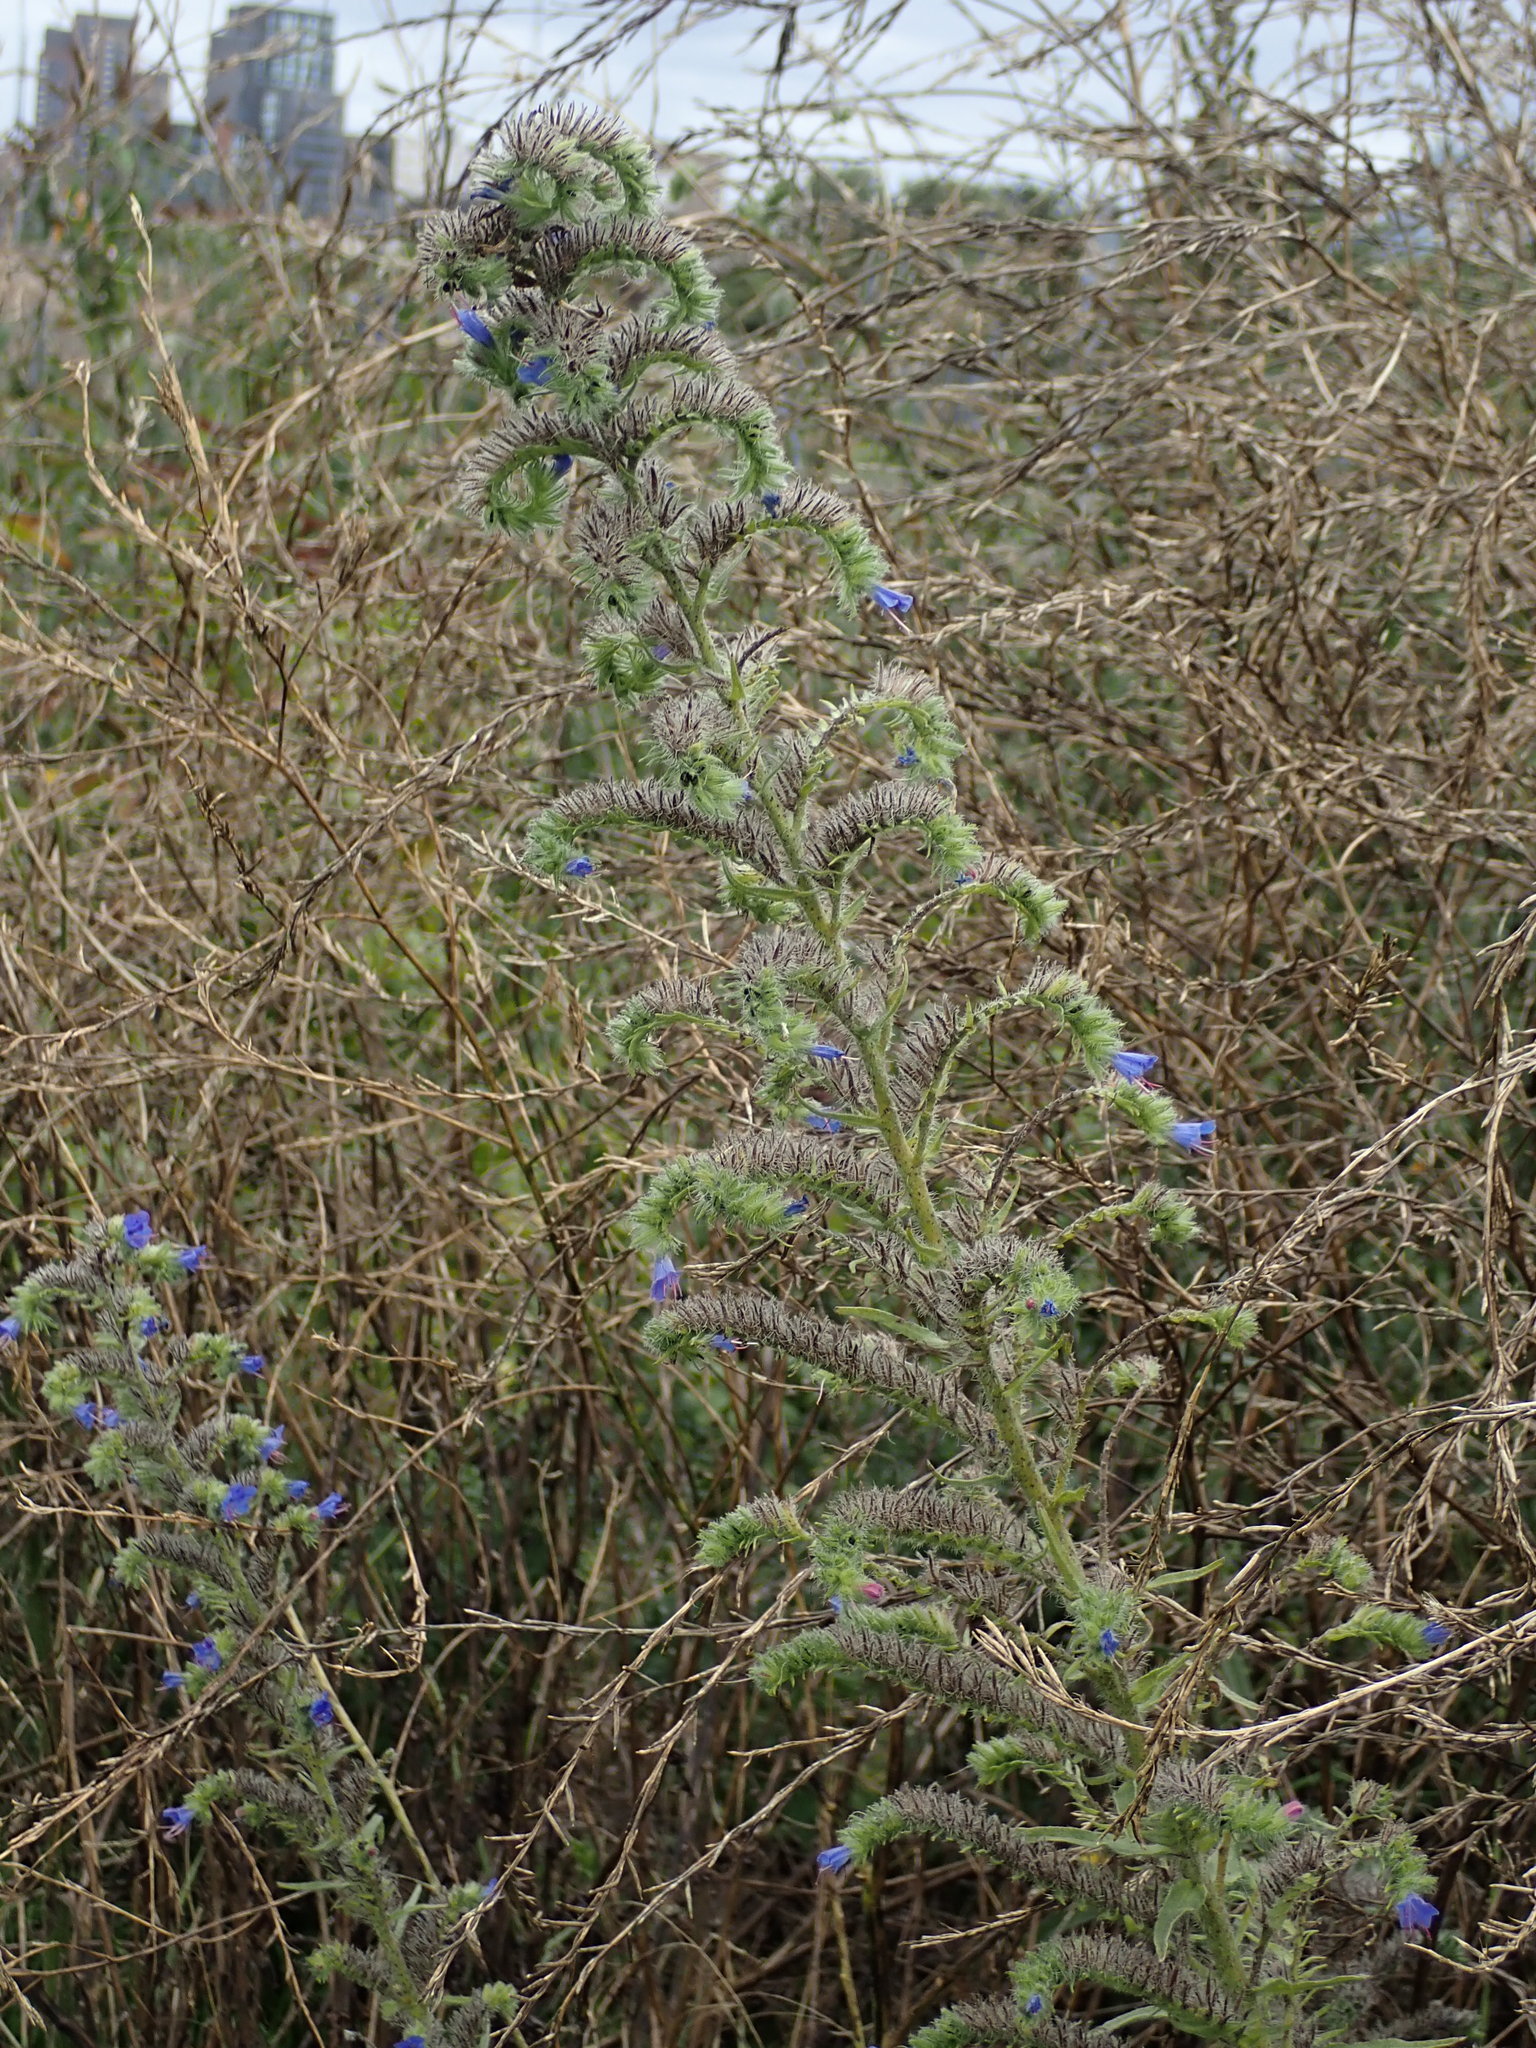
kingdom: Plantae
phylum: Tracheophyta
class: Magnoliopsida
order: Boraginales
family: Boraginaceae
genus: Echium
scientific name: Echium vulgare
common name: Common viper's bugloss
